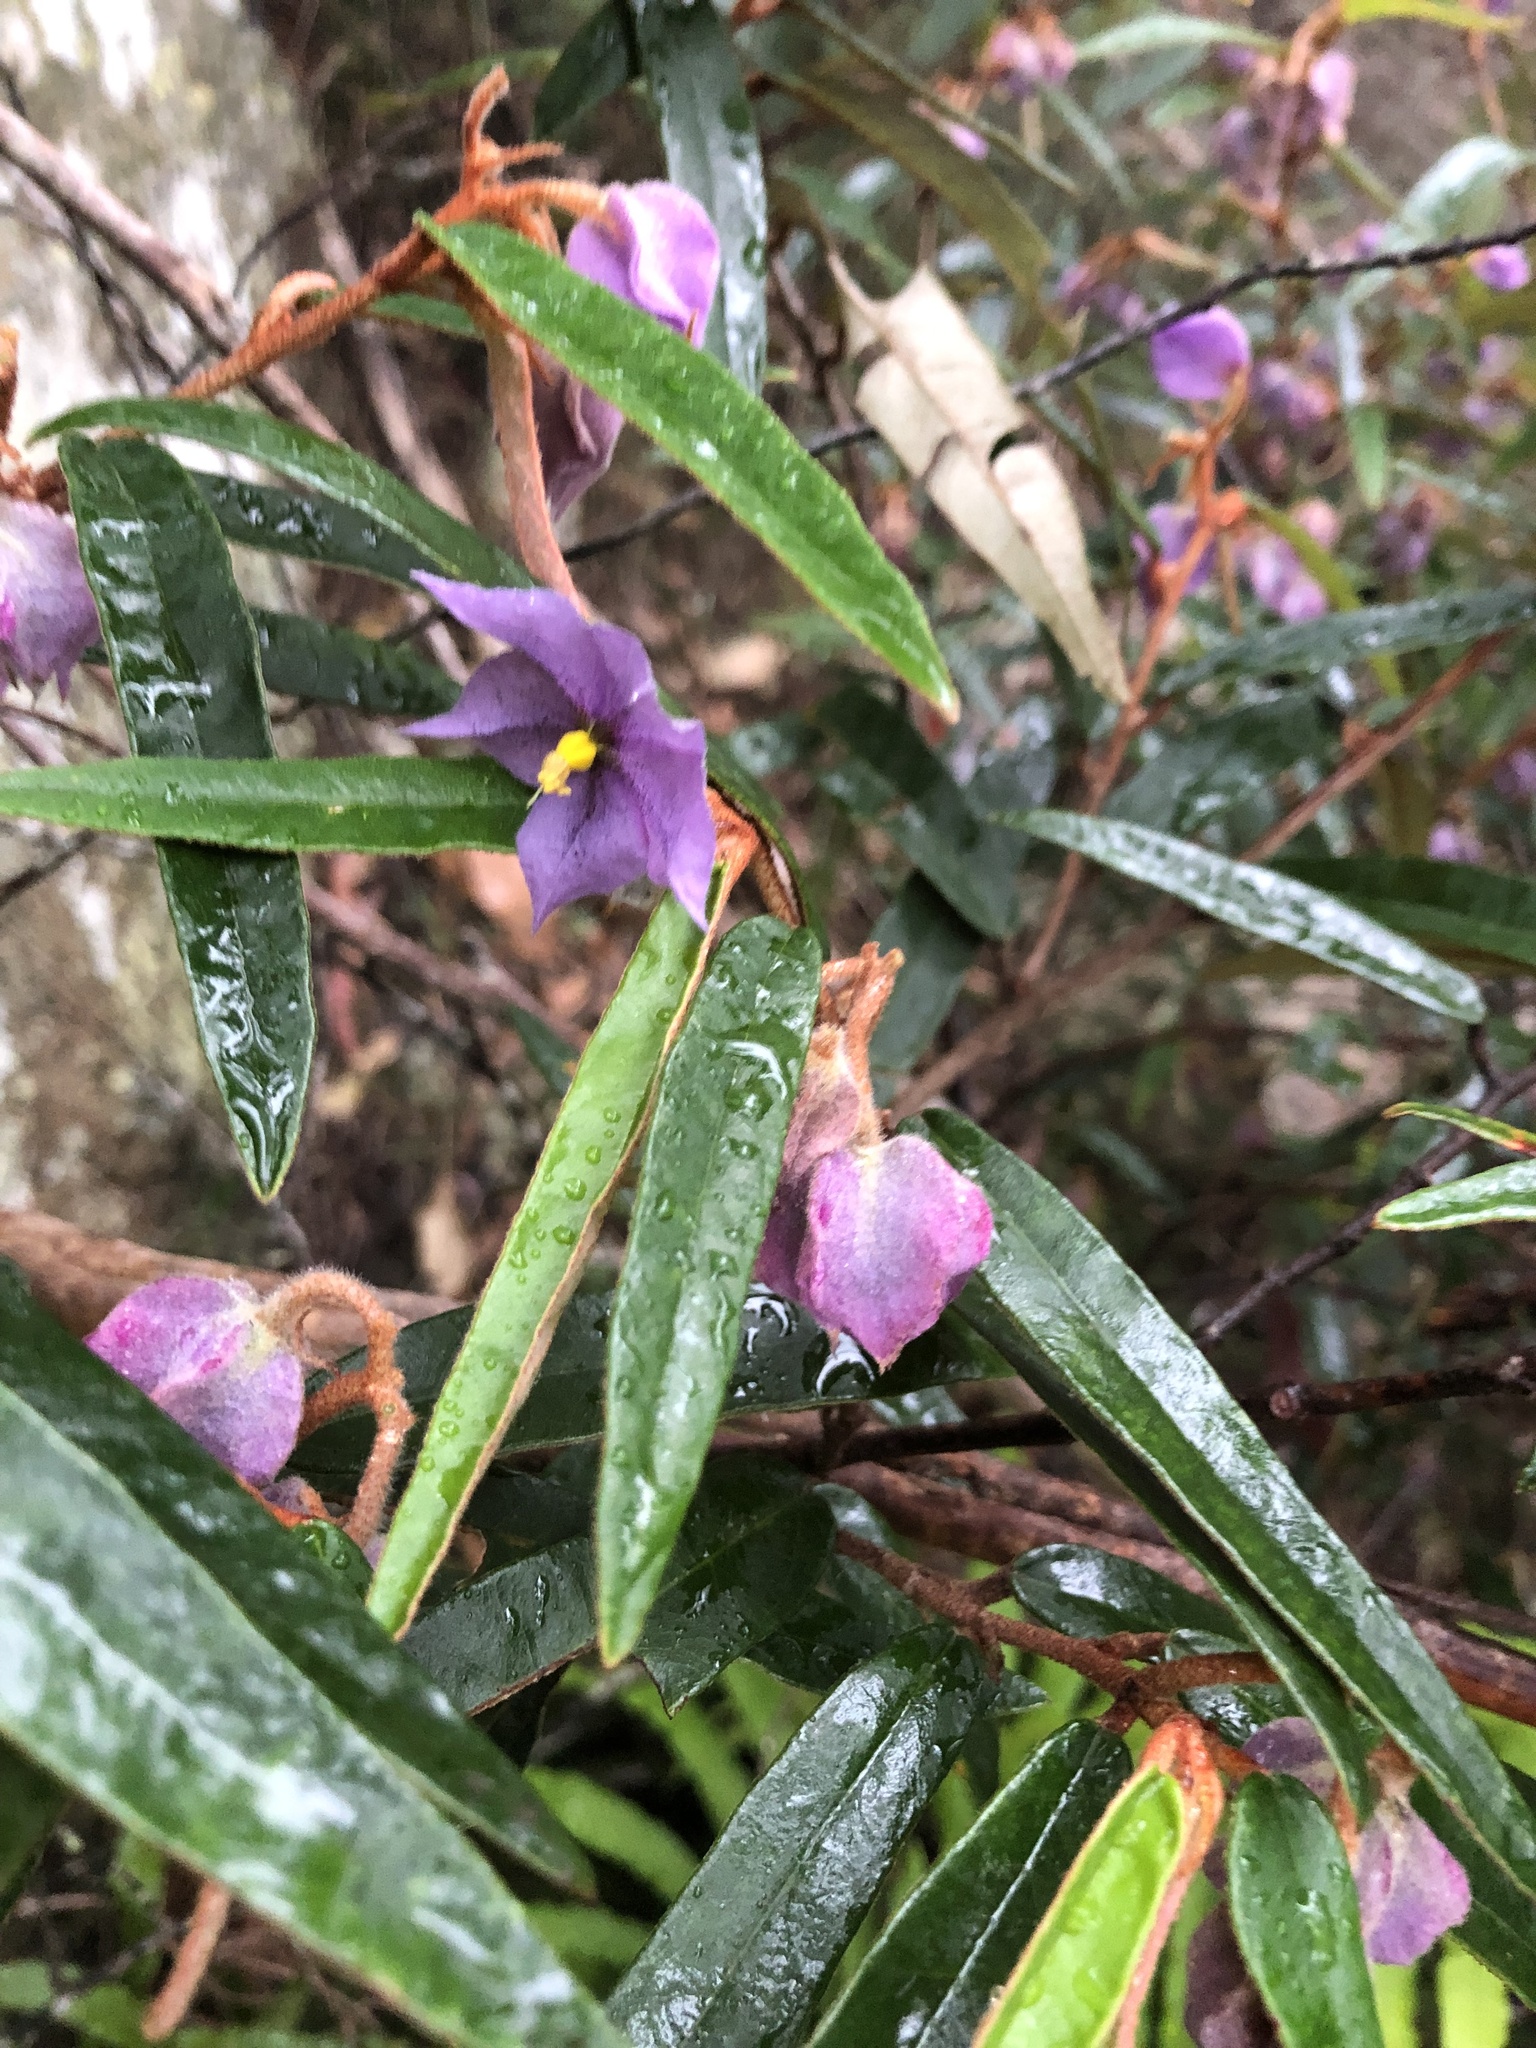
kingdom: Plantae
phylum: Tracheophyta
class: Magnoliopsida
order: Malvales
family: Malvaceae
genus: Seringia
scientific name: Seringia hillii
